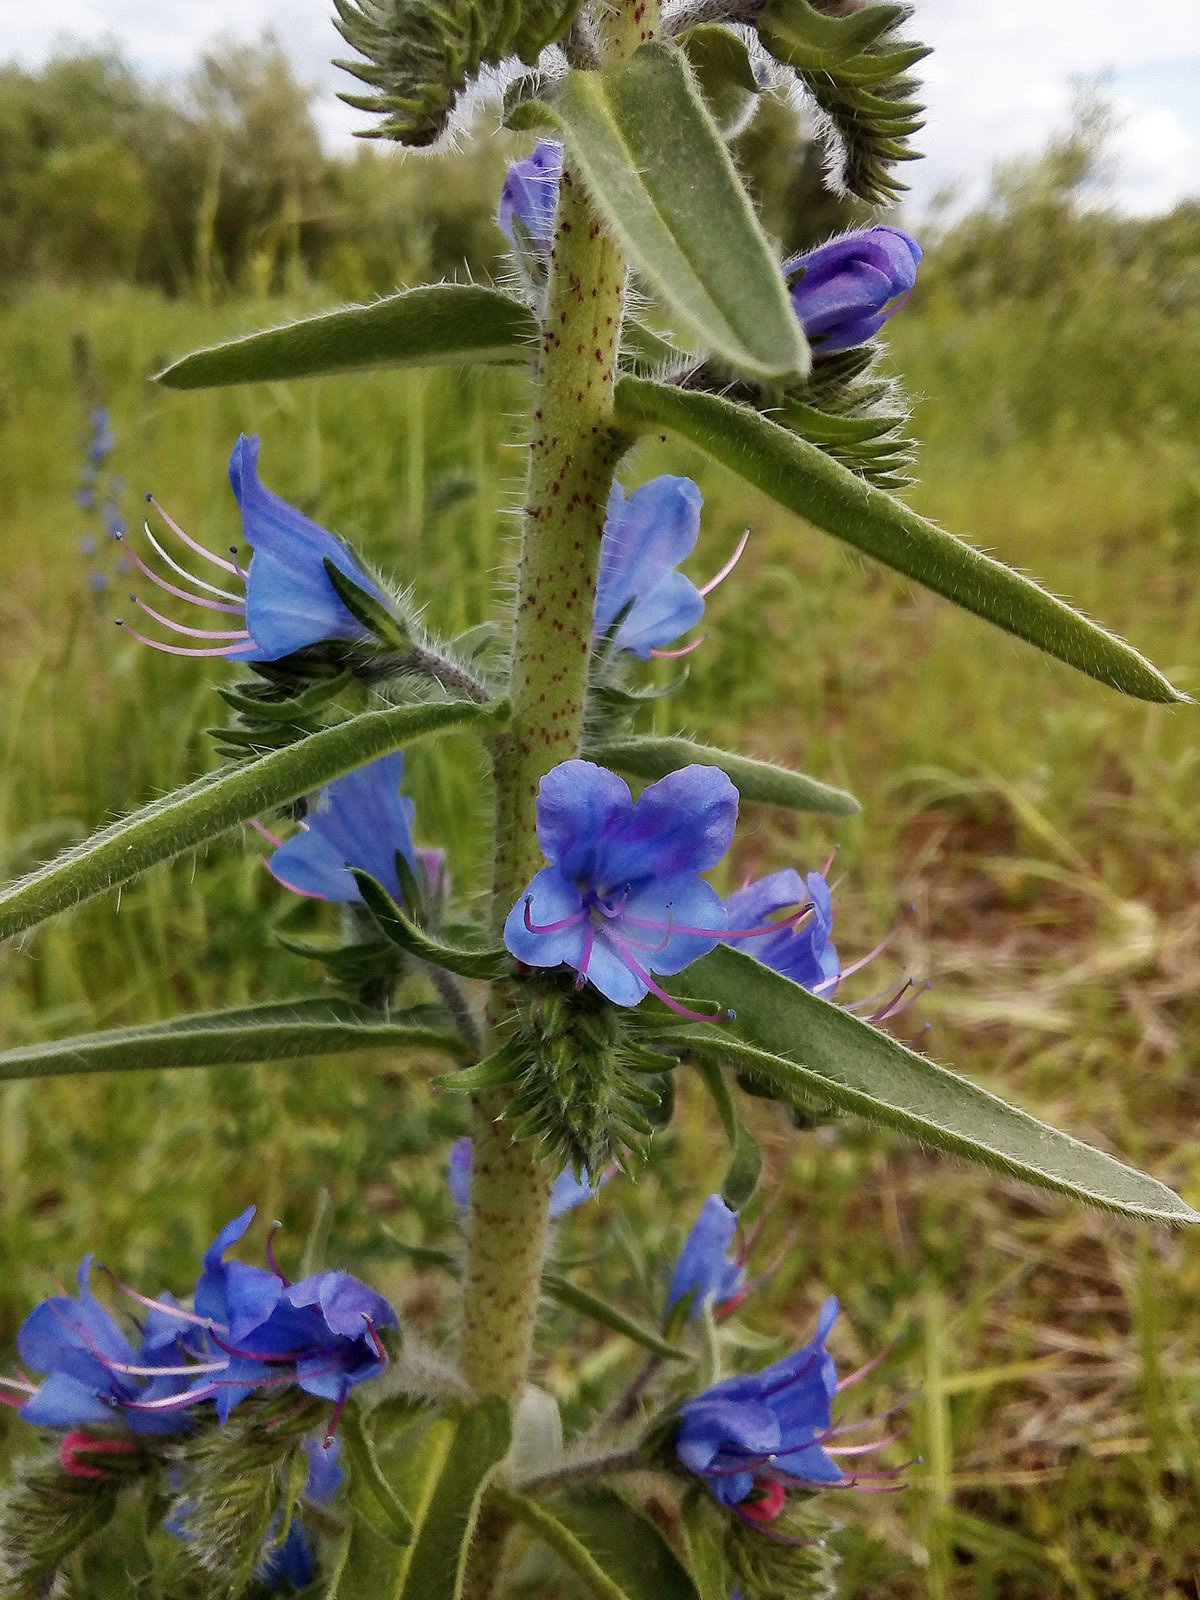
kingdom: Plantae
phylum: Tracheophyta
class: Magnoliopsida
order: Boraginales
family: Boraginaceae
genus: Echium
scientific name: Echium vulgare
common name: Common viper's bugloss
